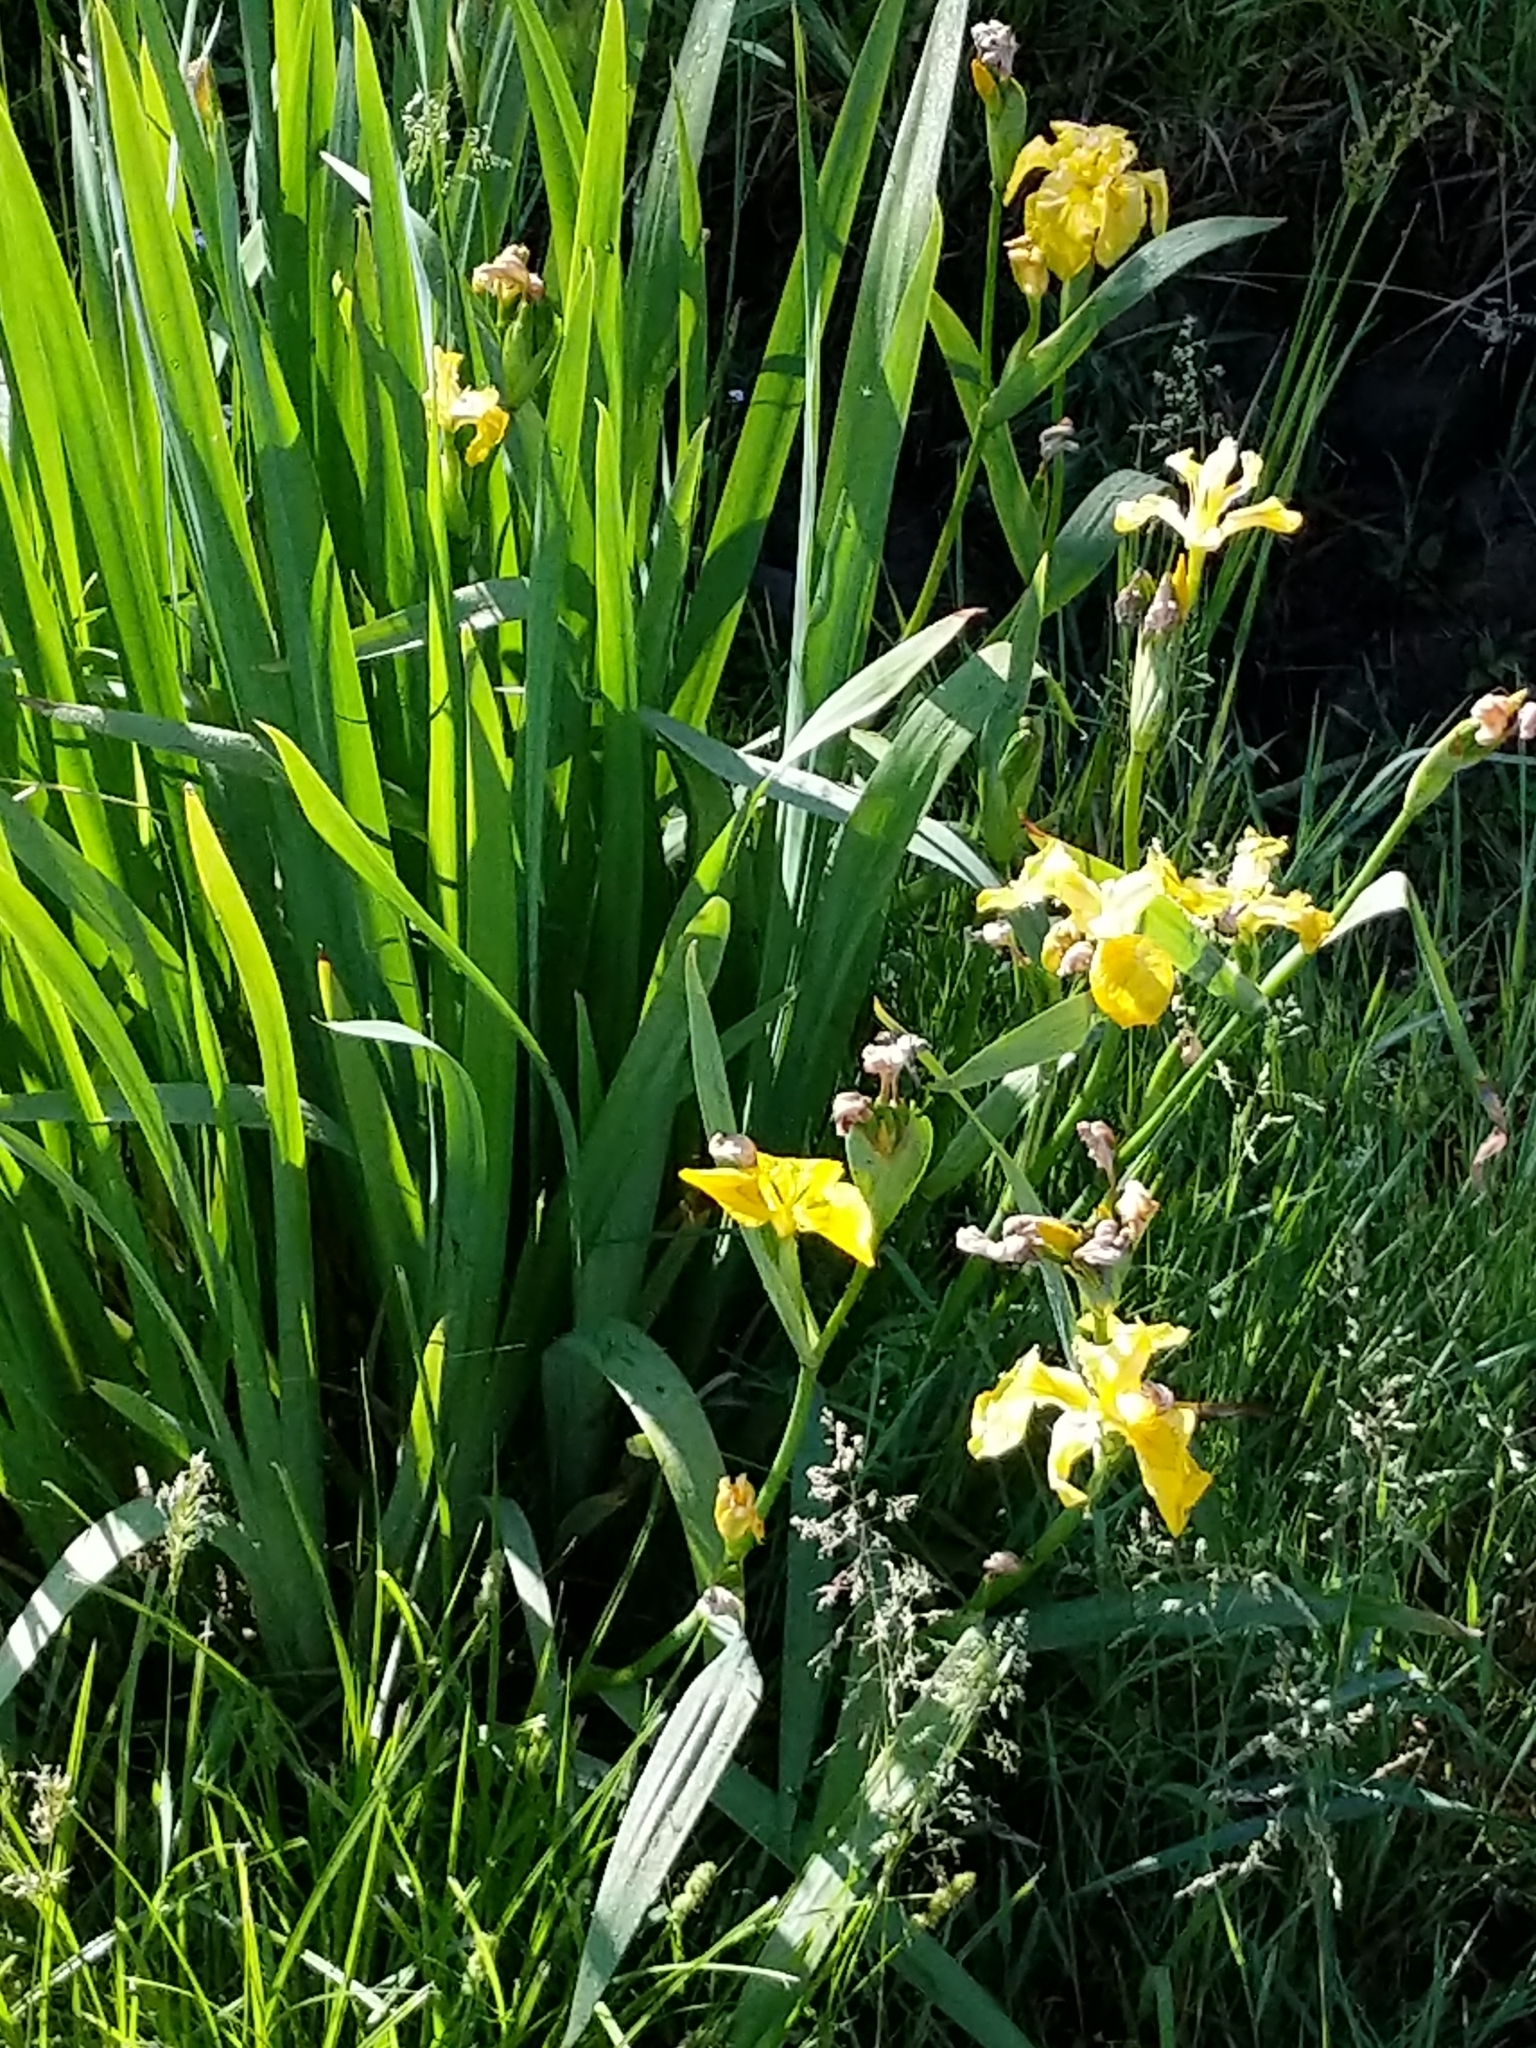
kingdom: Plantae
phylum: Tracheophyta
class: Liliopsida
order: Asparagales
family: Iridaceae
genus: Iris
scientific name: Iris pseudacorus
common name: Yellow flag
